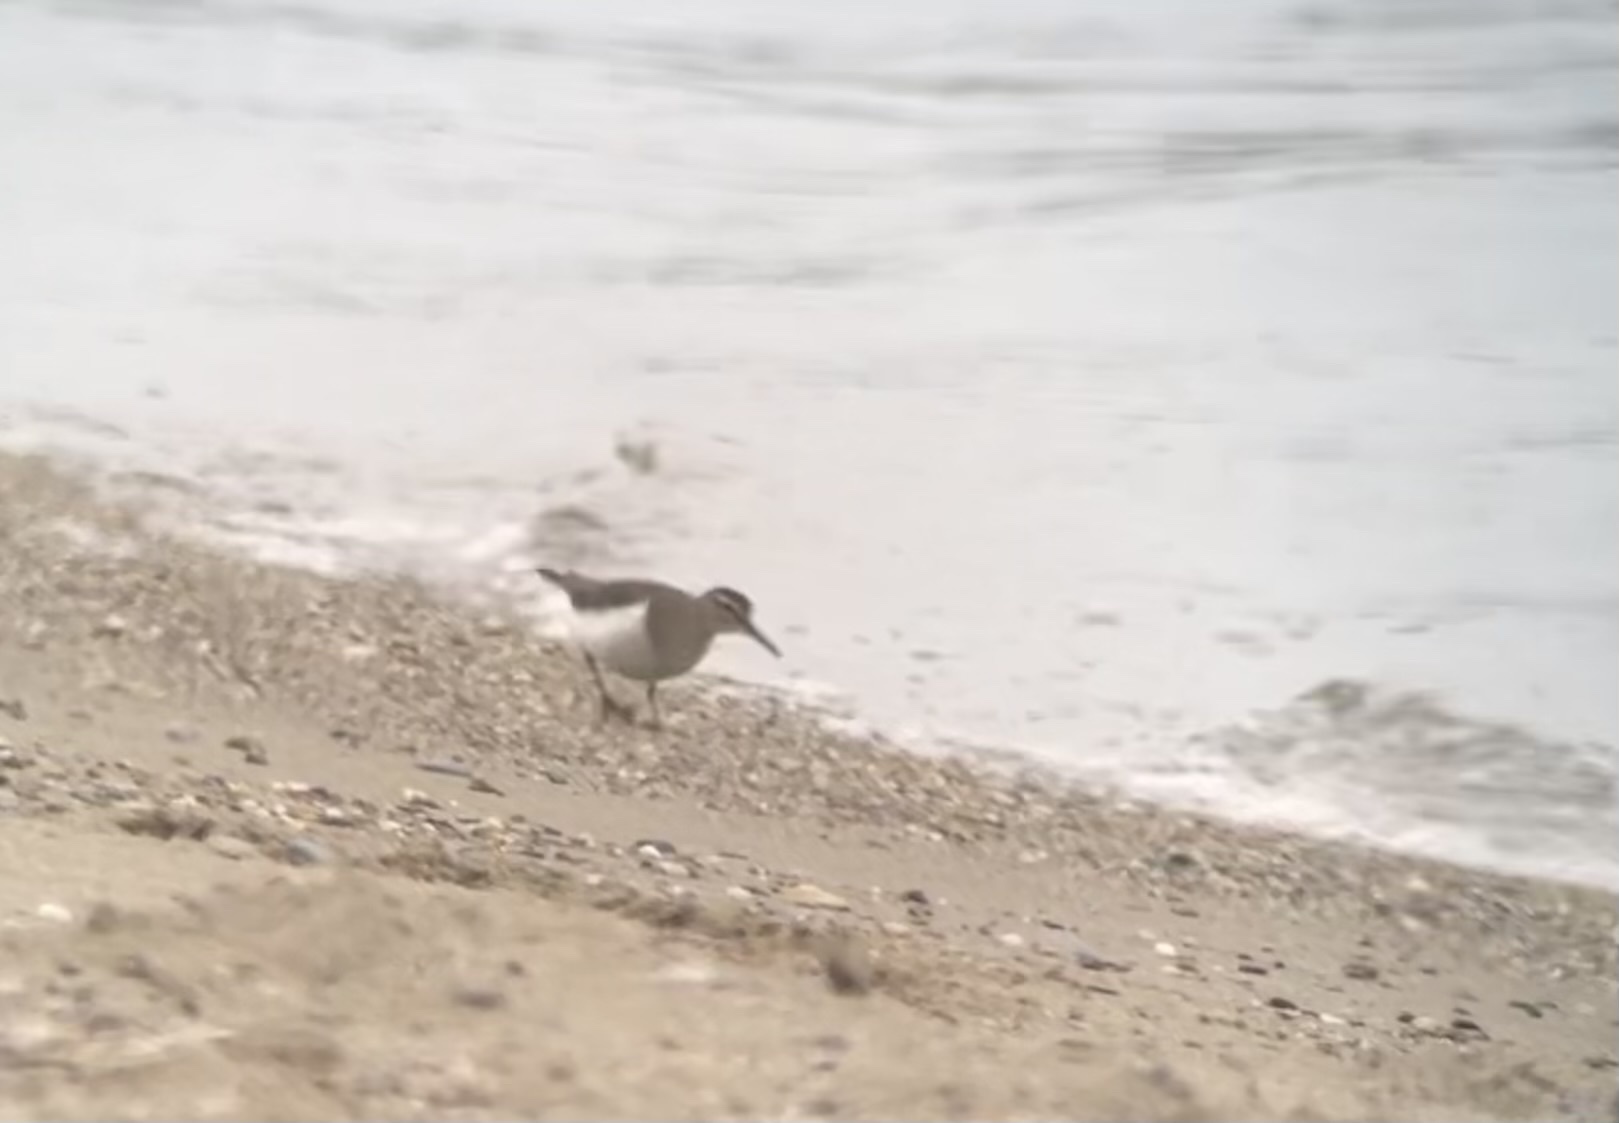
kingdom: Animalia
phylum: Chordata
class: Aves
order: Charadriiformes
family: Scolopacidae
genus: Actitis
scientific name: Actitis hypoleucos
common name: Common sandpiper
